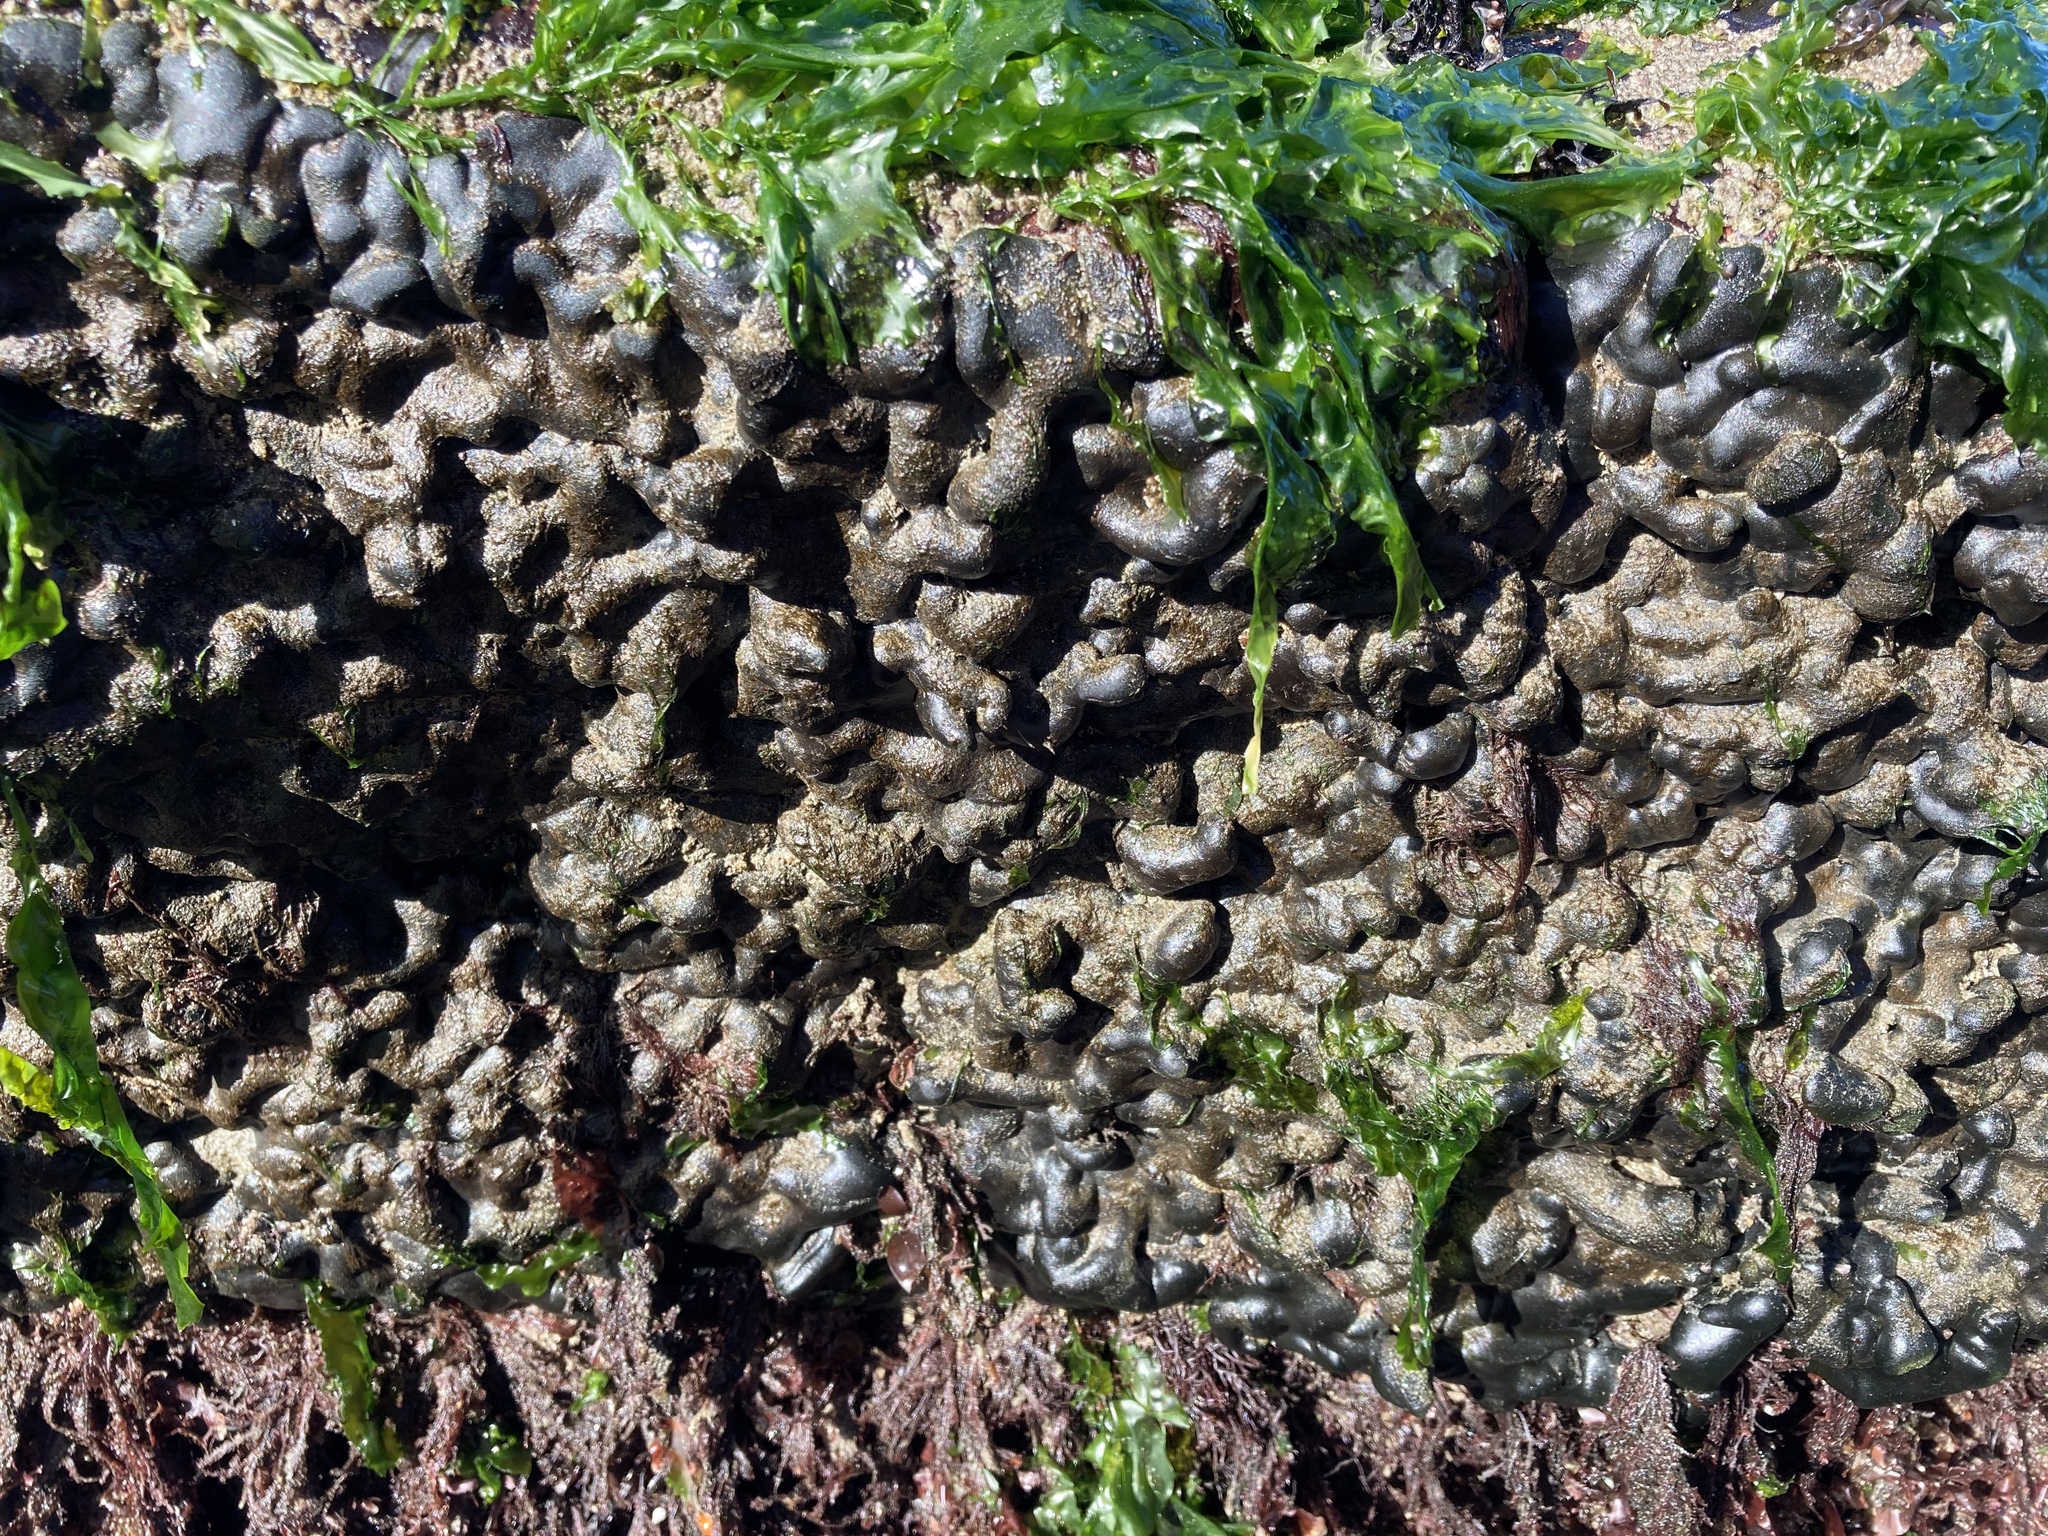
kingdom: Plantae
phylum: Chlorophyta
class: Ulvophyceae
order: Bryopsidales
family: Codiaceae
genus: Codium
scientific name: Codium setchellii
